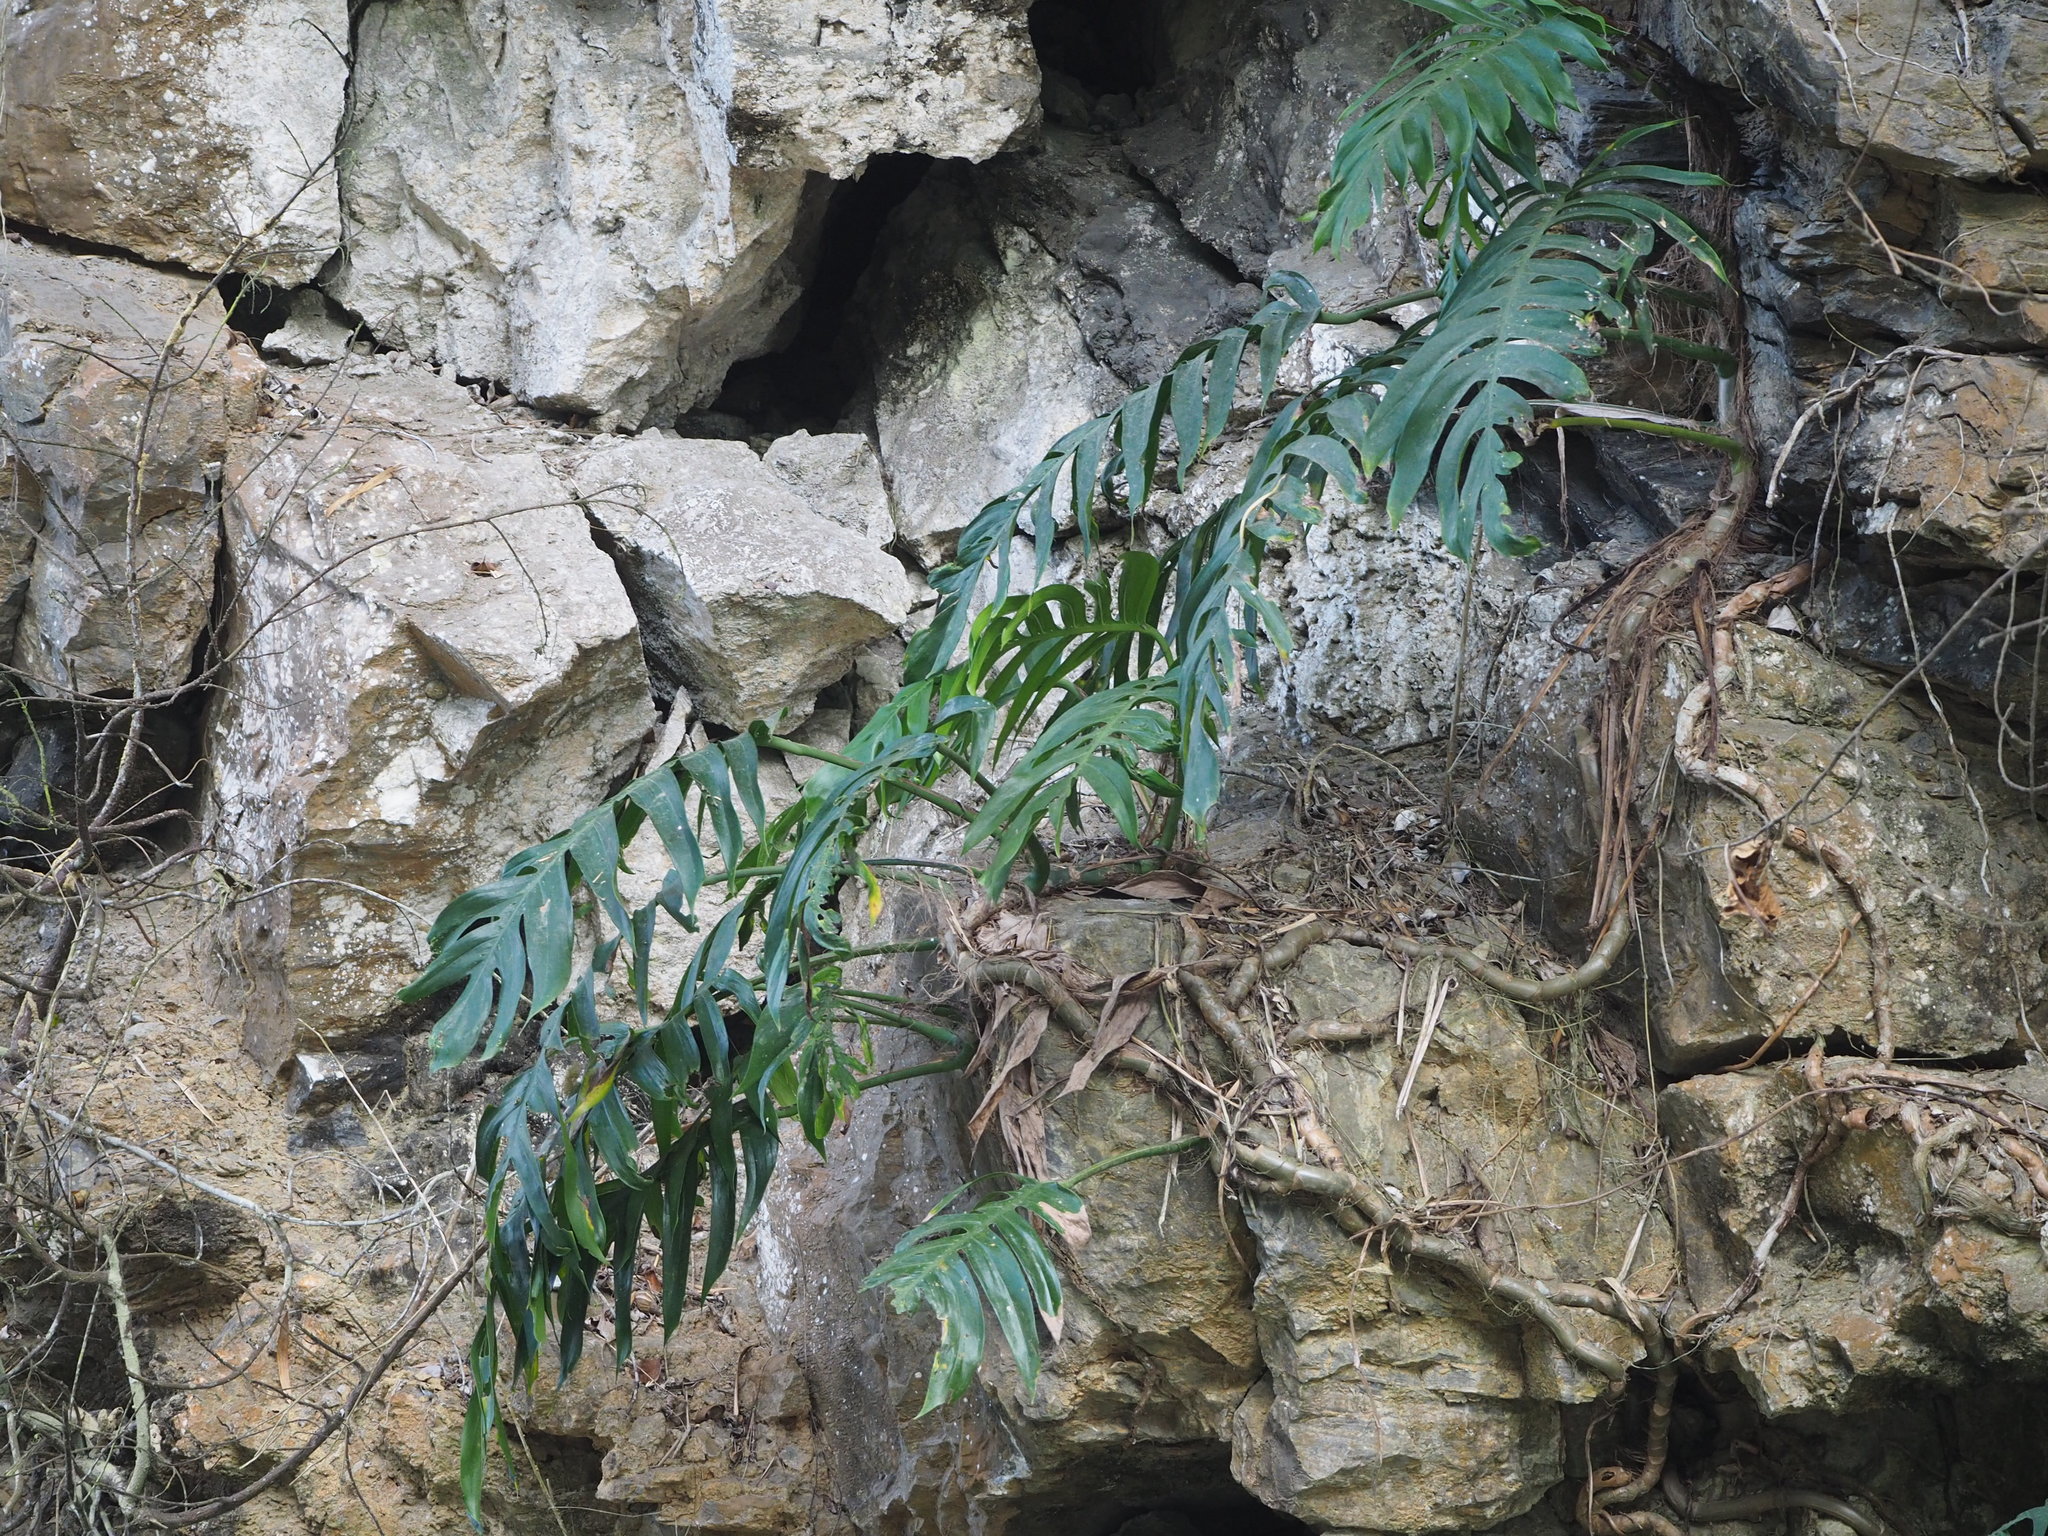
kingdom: Plantae
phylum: Tracheophyta
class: Liliopsida
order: Alismatales
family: Araceae
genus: Epipremnum
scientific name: Epipremnum pinnatum
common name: Centipede tongavine
